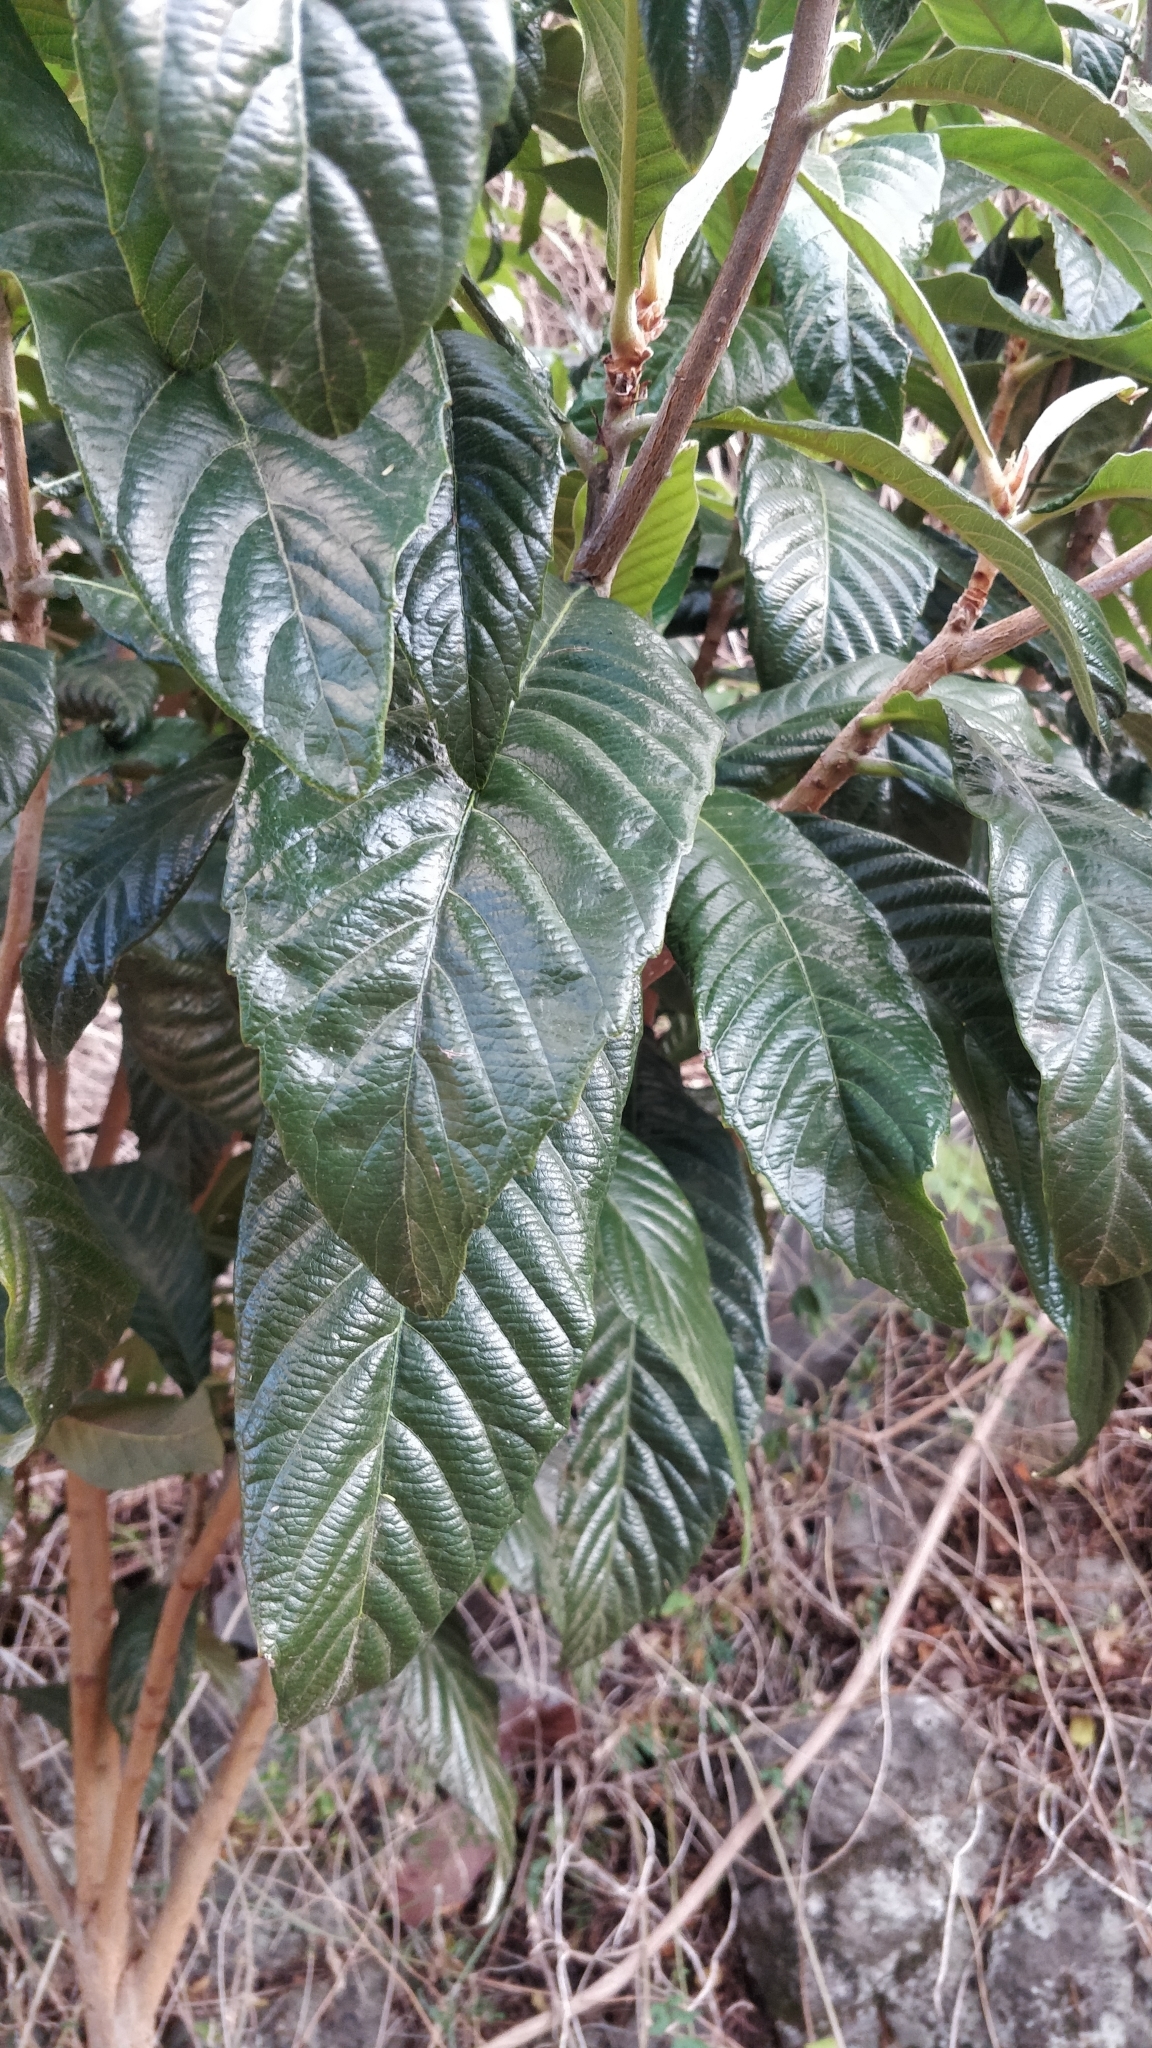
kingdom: Plantae
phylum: Tracheophyta
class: Magnoliopsida
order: Rosales
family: Rosaceae
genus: Rhaphiolepis
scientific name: Rhaphiolepis bibas
